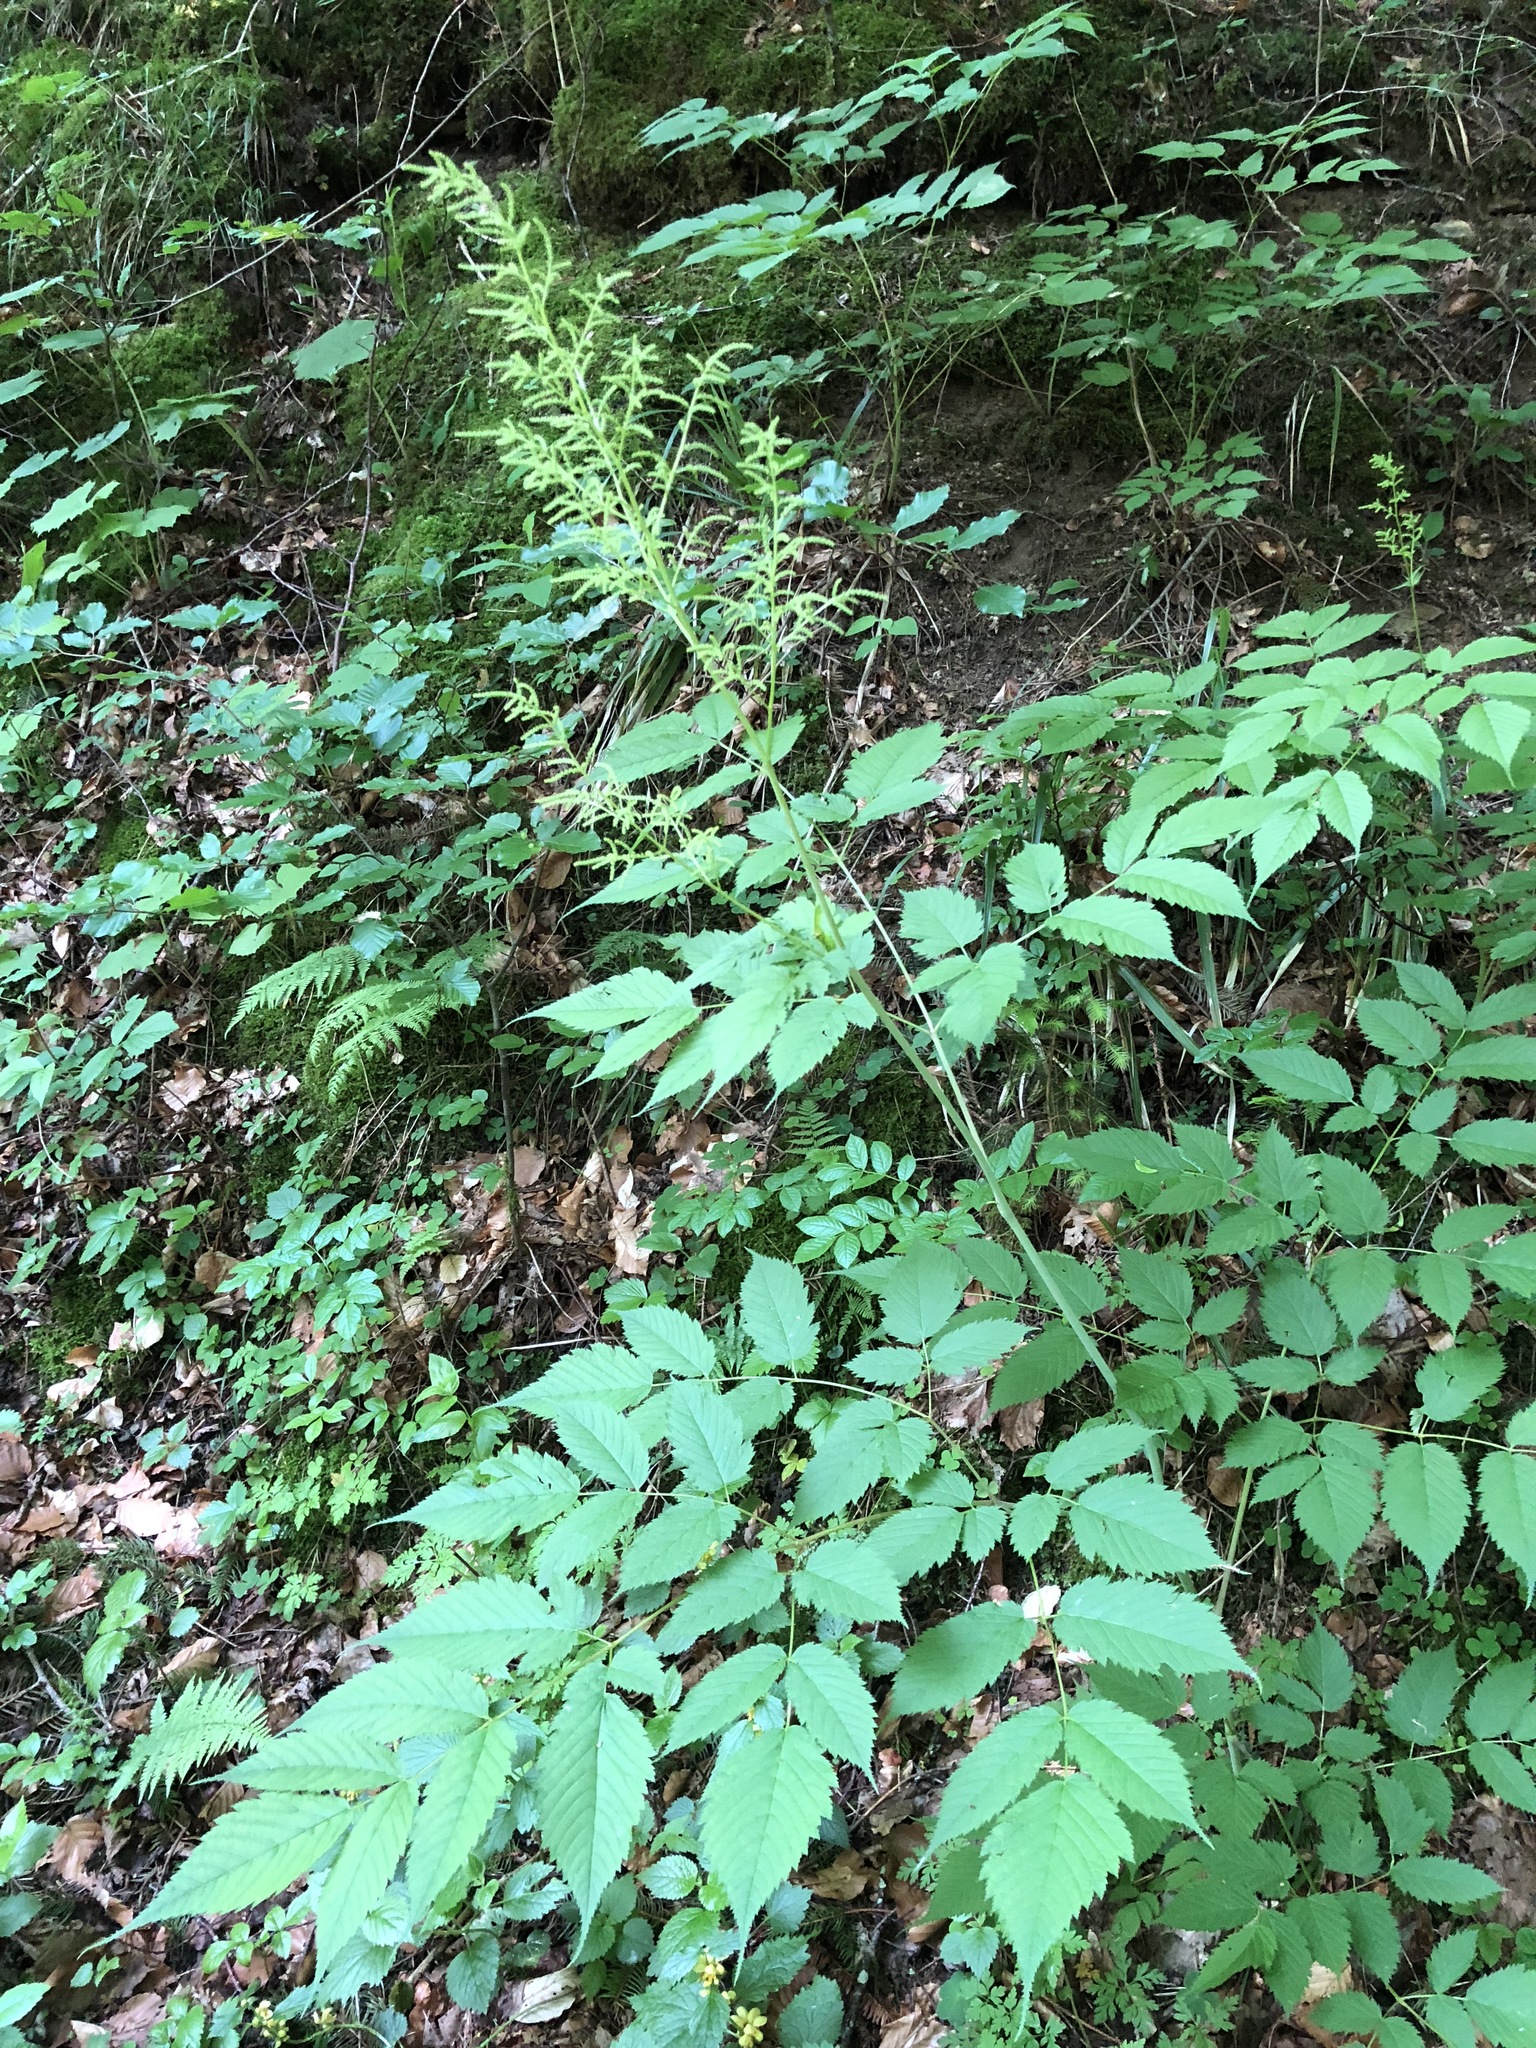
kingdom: Plantae
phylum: Tracheophyta
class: Magnoliopsida
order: Rosales
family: Rosaceae
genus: Aruncus
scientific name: Aruncus dioicus
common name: Buck's-beard
